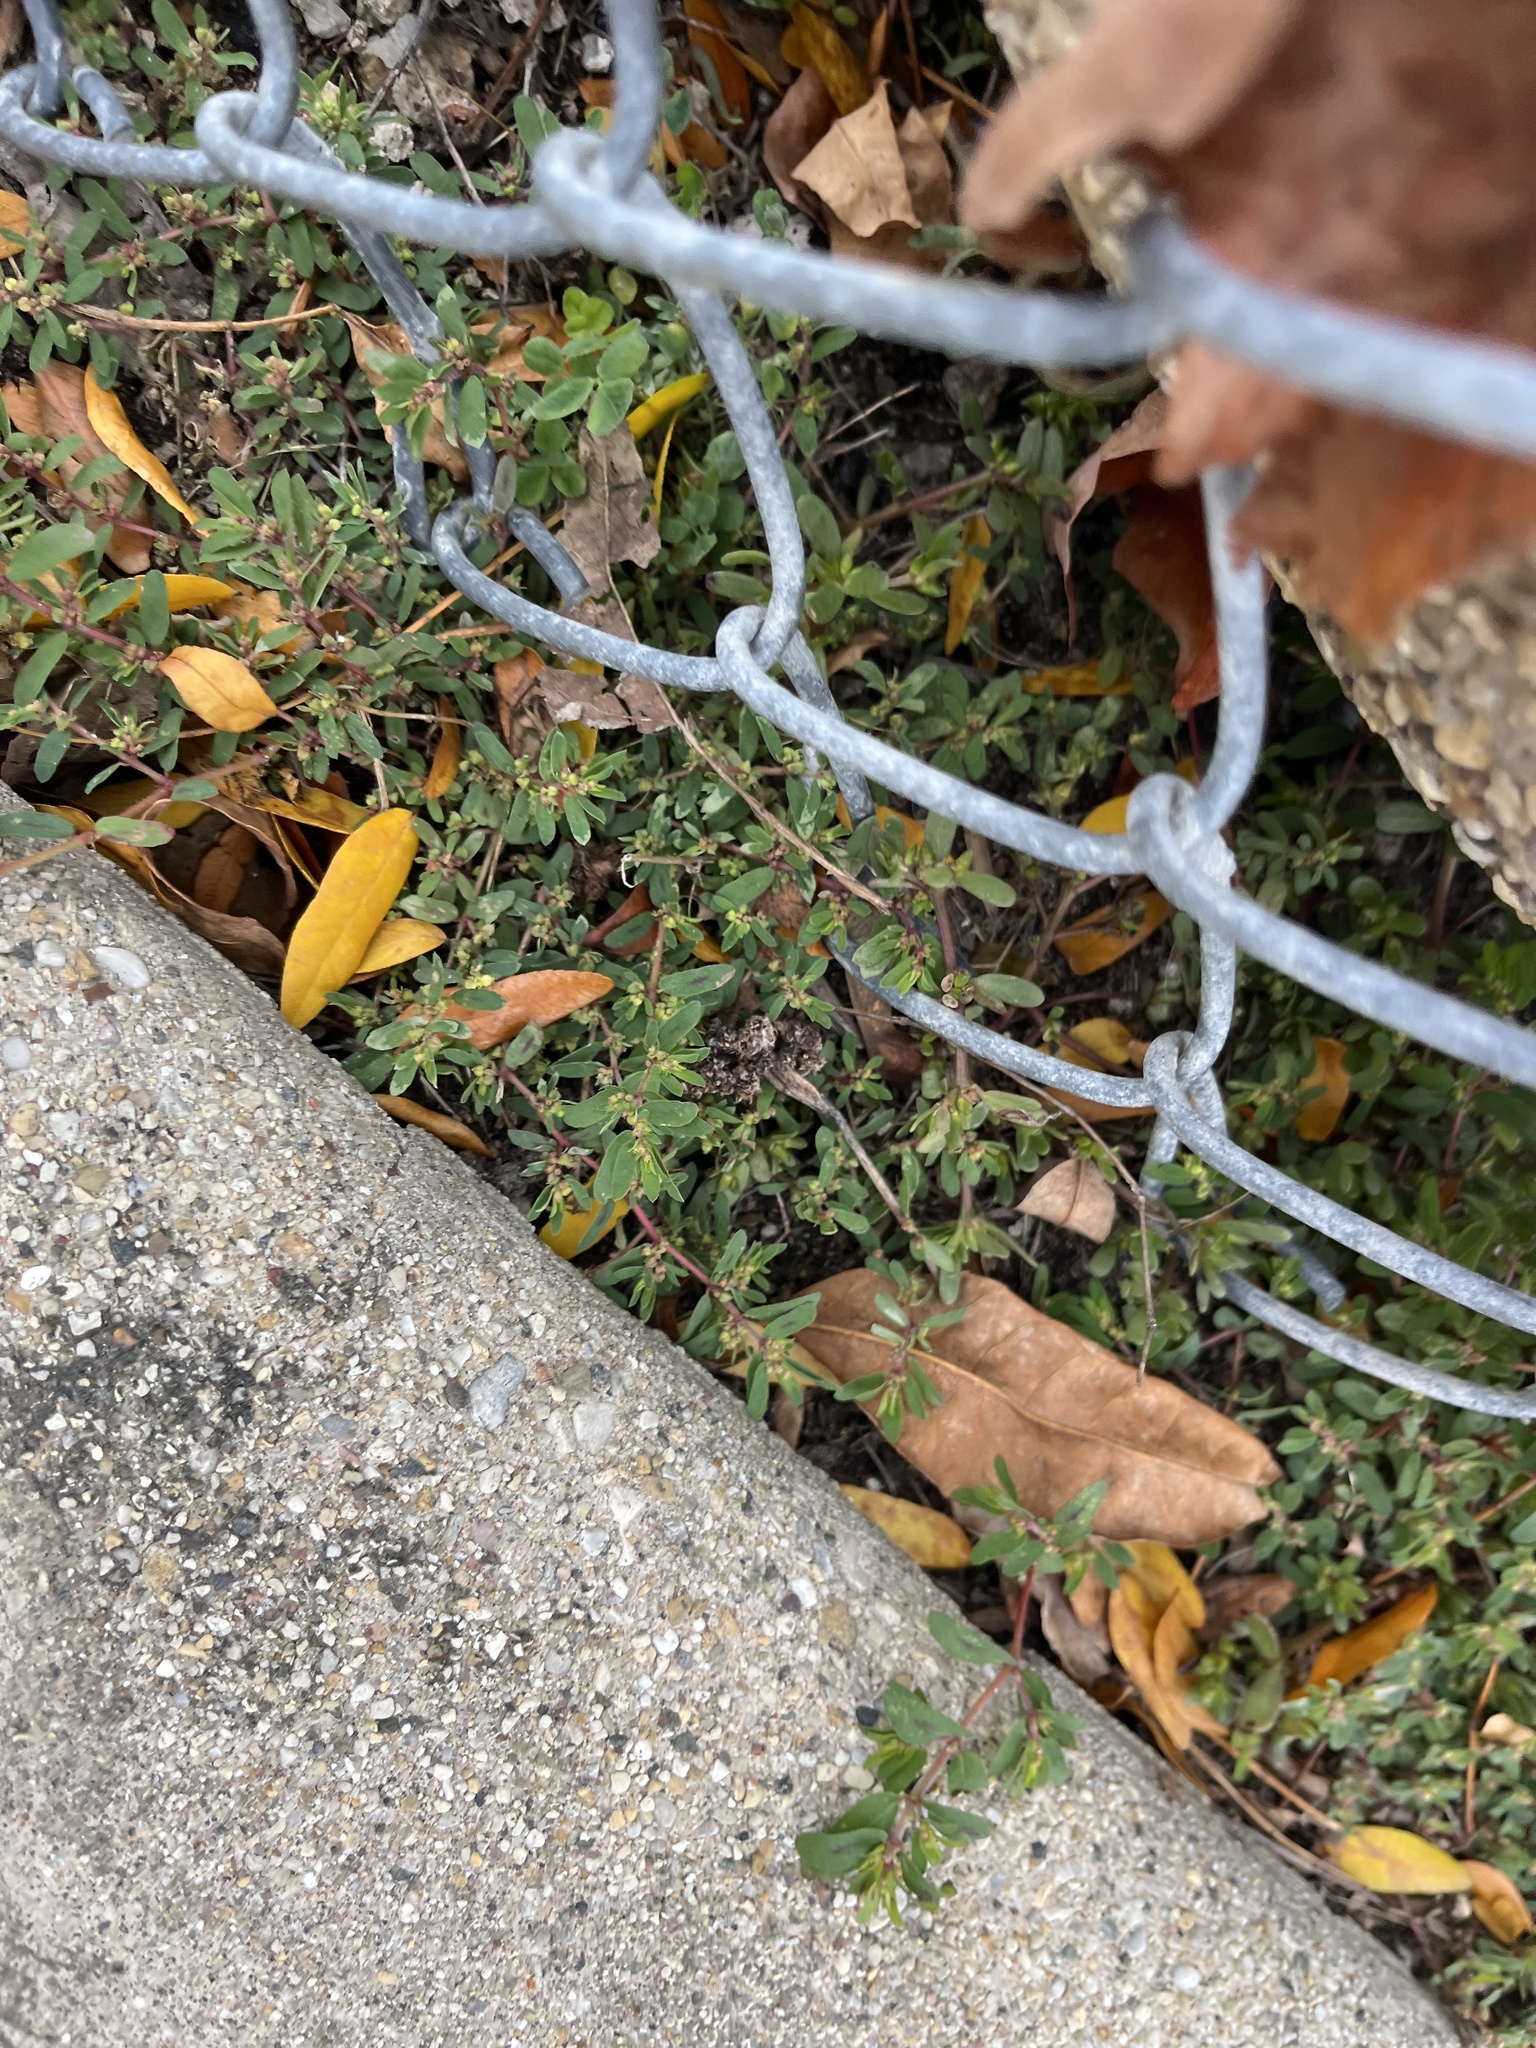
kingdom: Plantae
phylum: Tracheophyta
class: Magnoliopsida
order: Malpighiales
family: Euphorbiaceae
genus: Euphorbia
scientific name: Euphorbia maculata
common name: Spotted spurge
